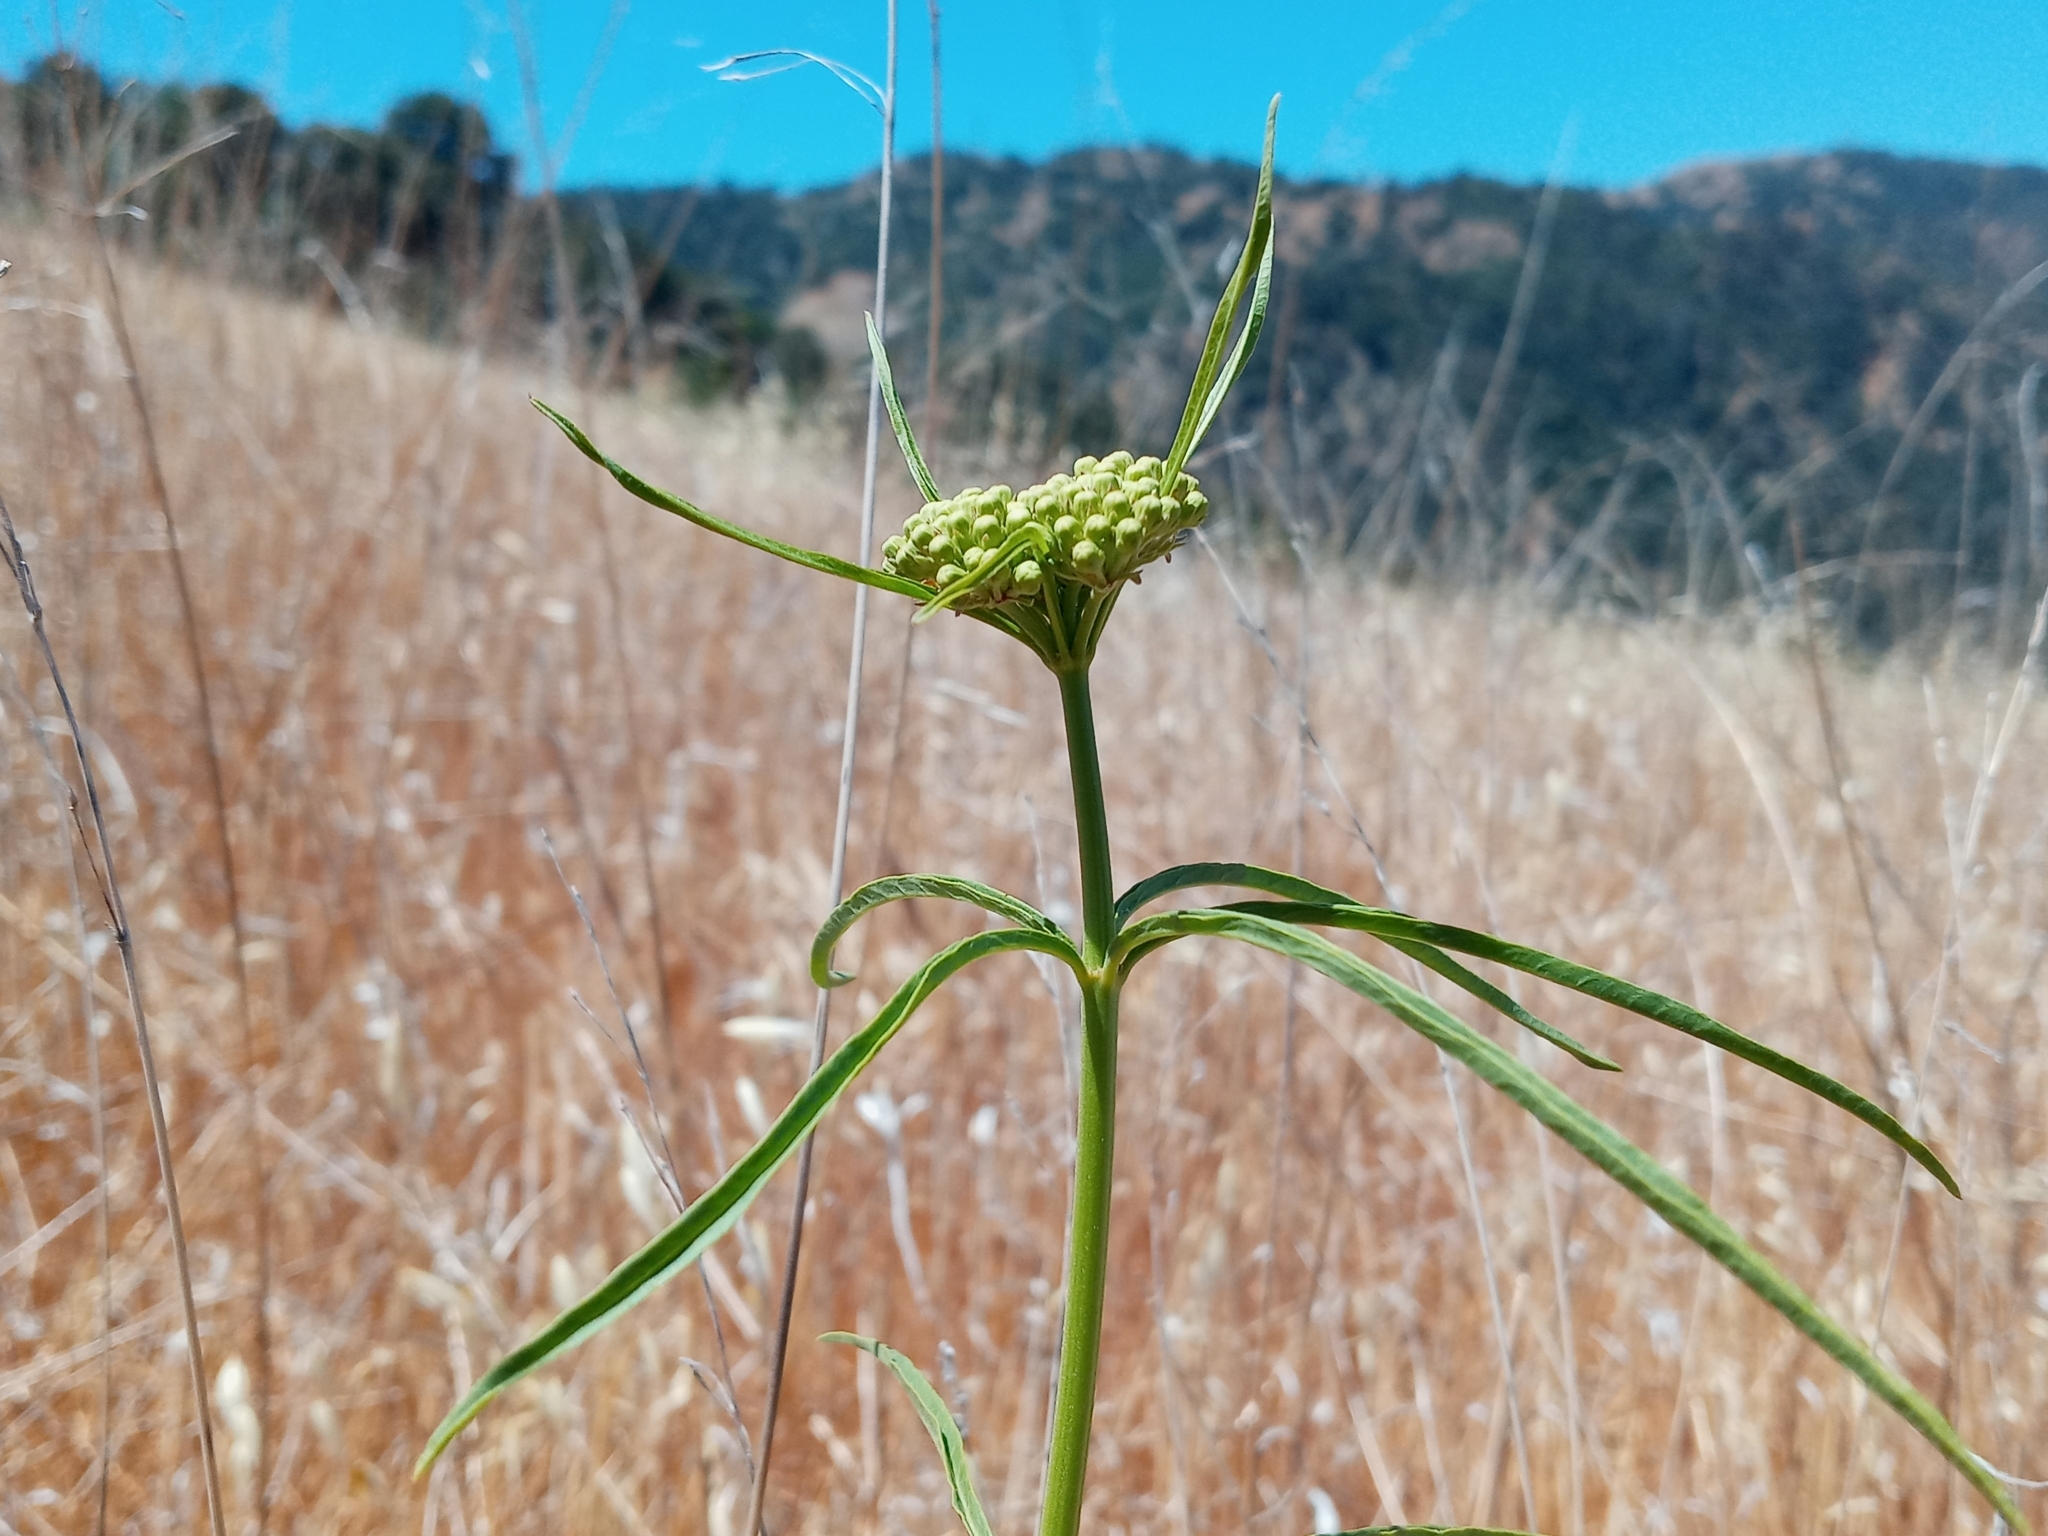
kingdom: Plantae
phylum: Tracheophyta
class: Magnoliopsida
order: Gentianales
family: Apocynaceae
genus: Asclepias
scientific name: Asclepias fascicularis
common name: Mexican milkweed
